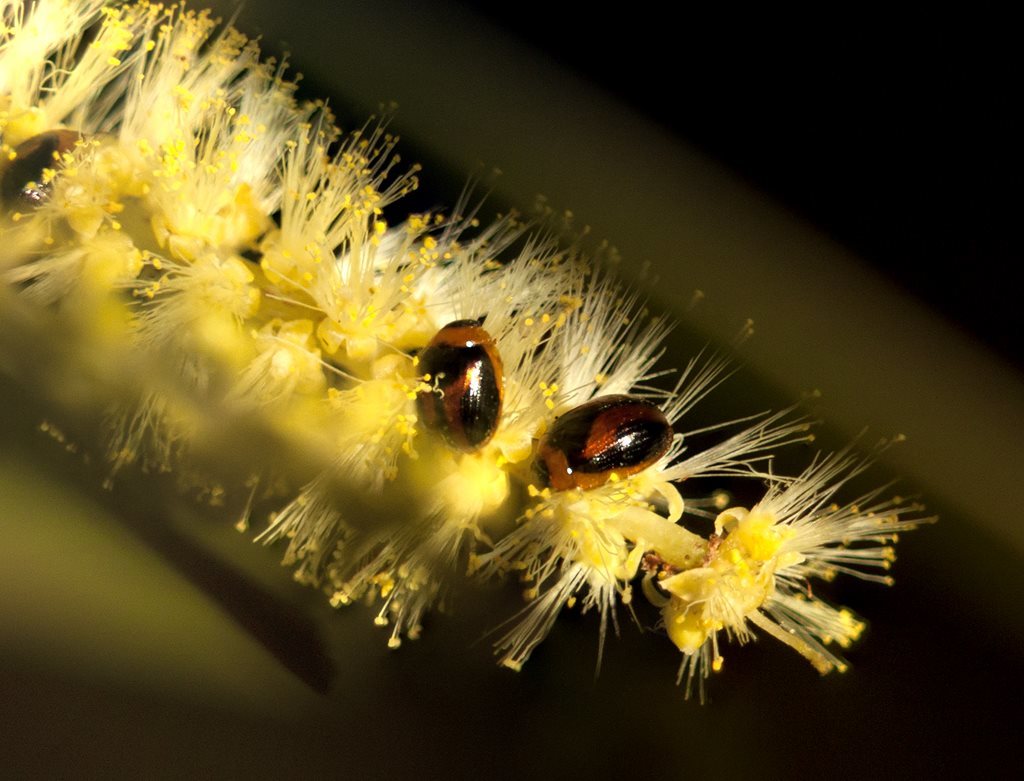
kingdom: Animalia
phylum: Arthropoda
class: Insecta
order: Coleoptera
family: Chrysomelidae
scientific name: Chrysomelidae
